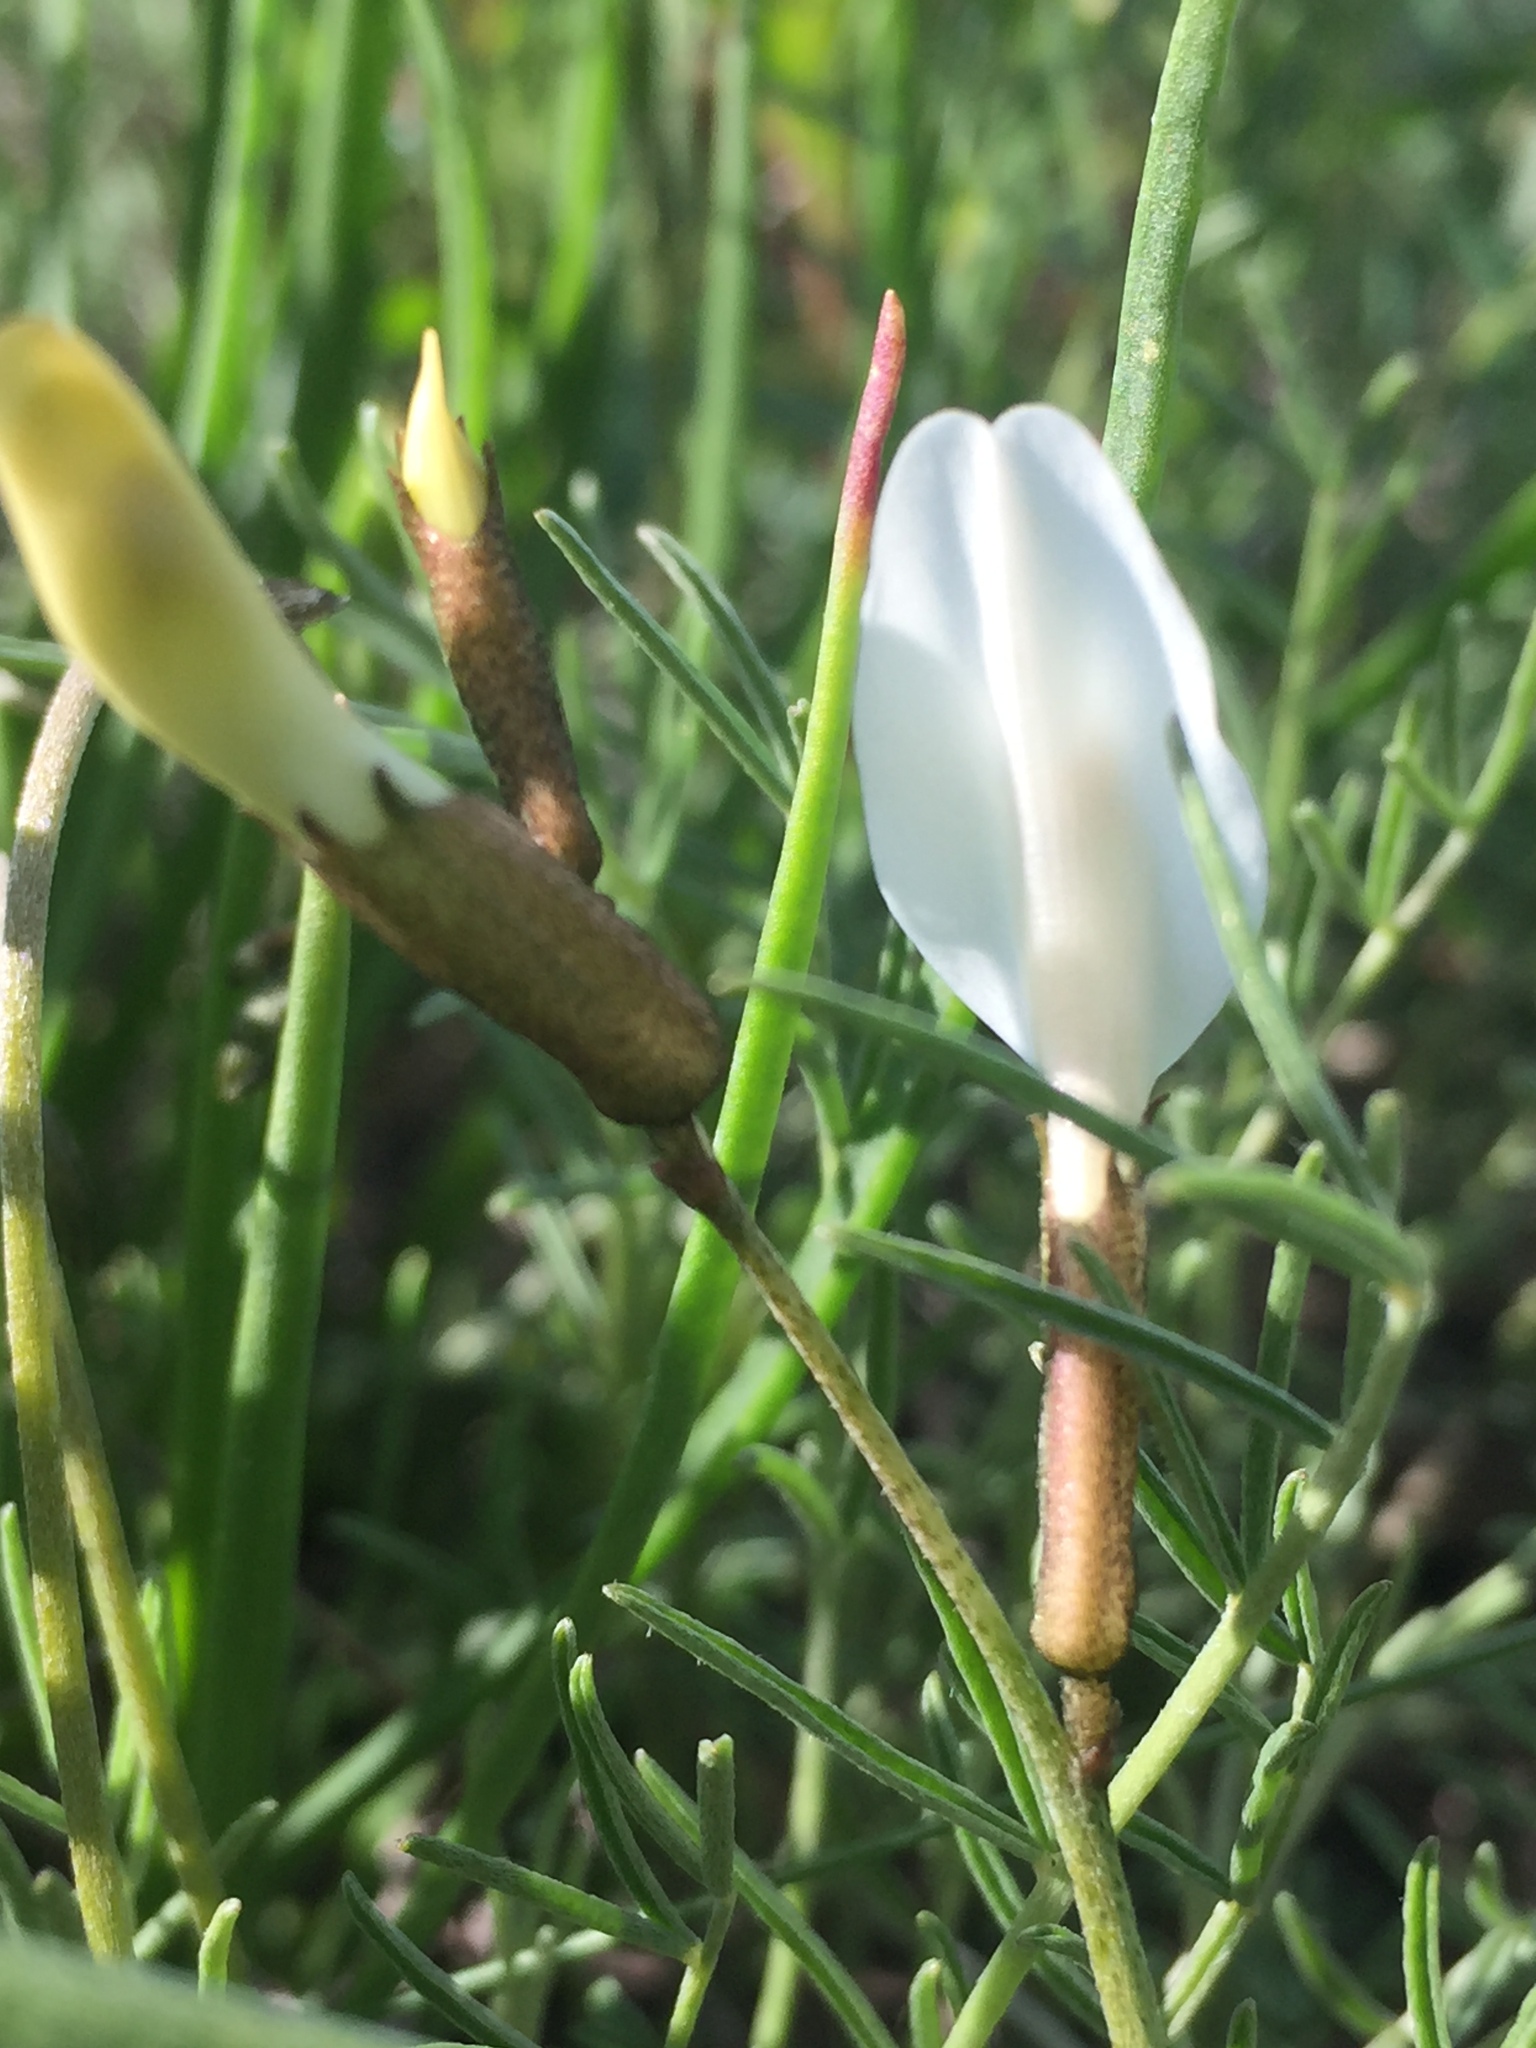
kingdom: Plantae
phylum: Tracheophyta
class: Magnoliopsida
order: Fabales
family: Fabaceae
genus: Astragalus
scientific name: Astragalus ucrainicus
